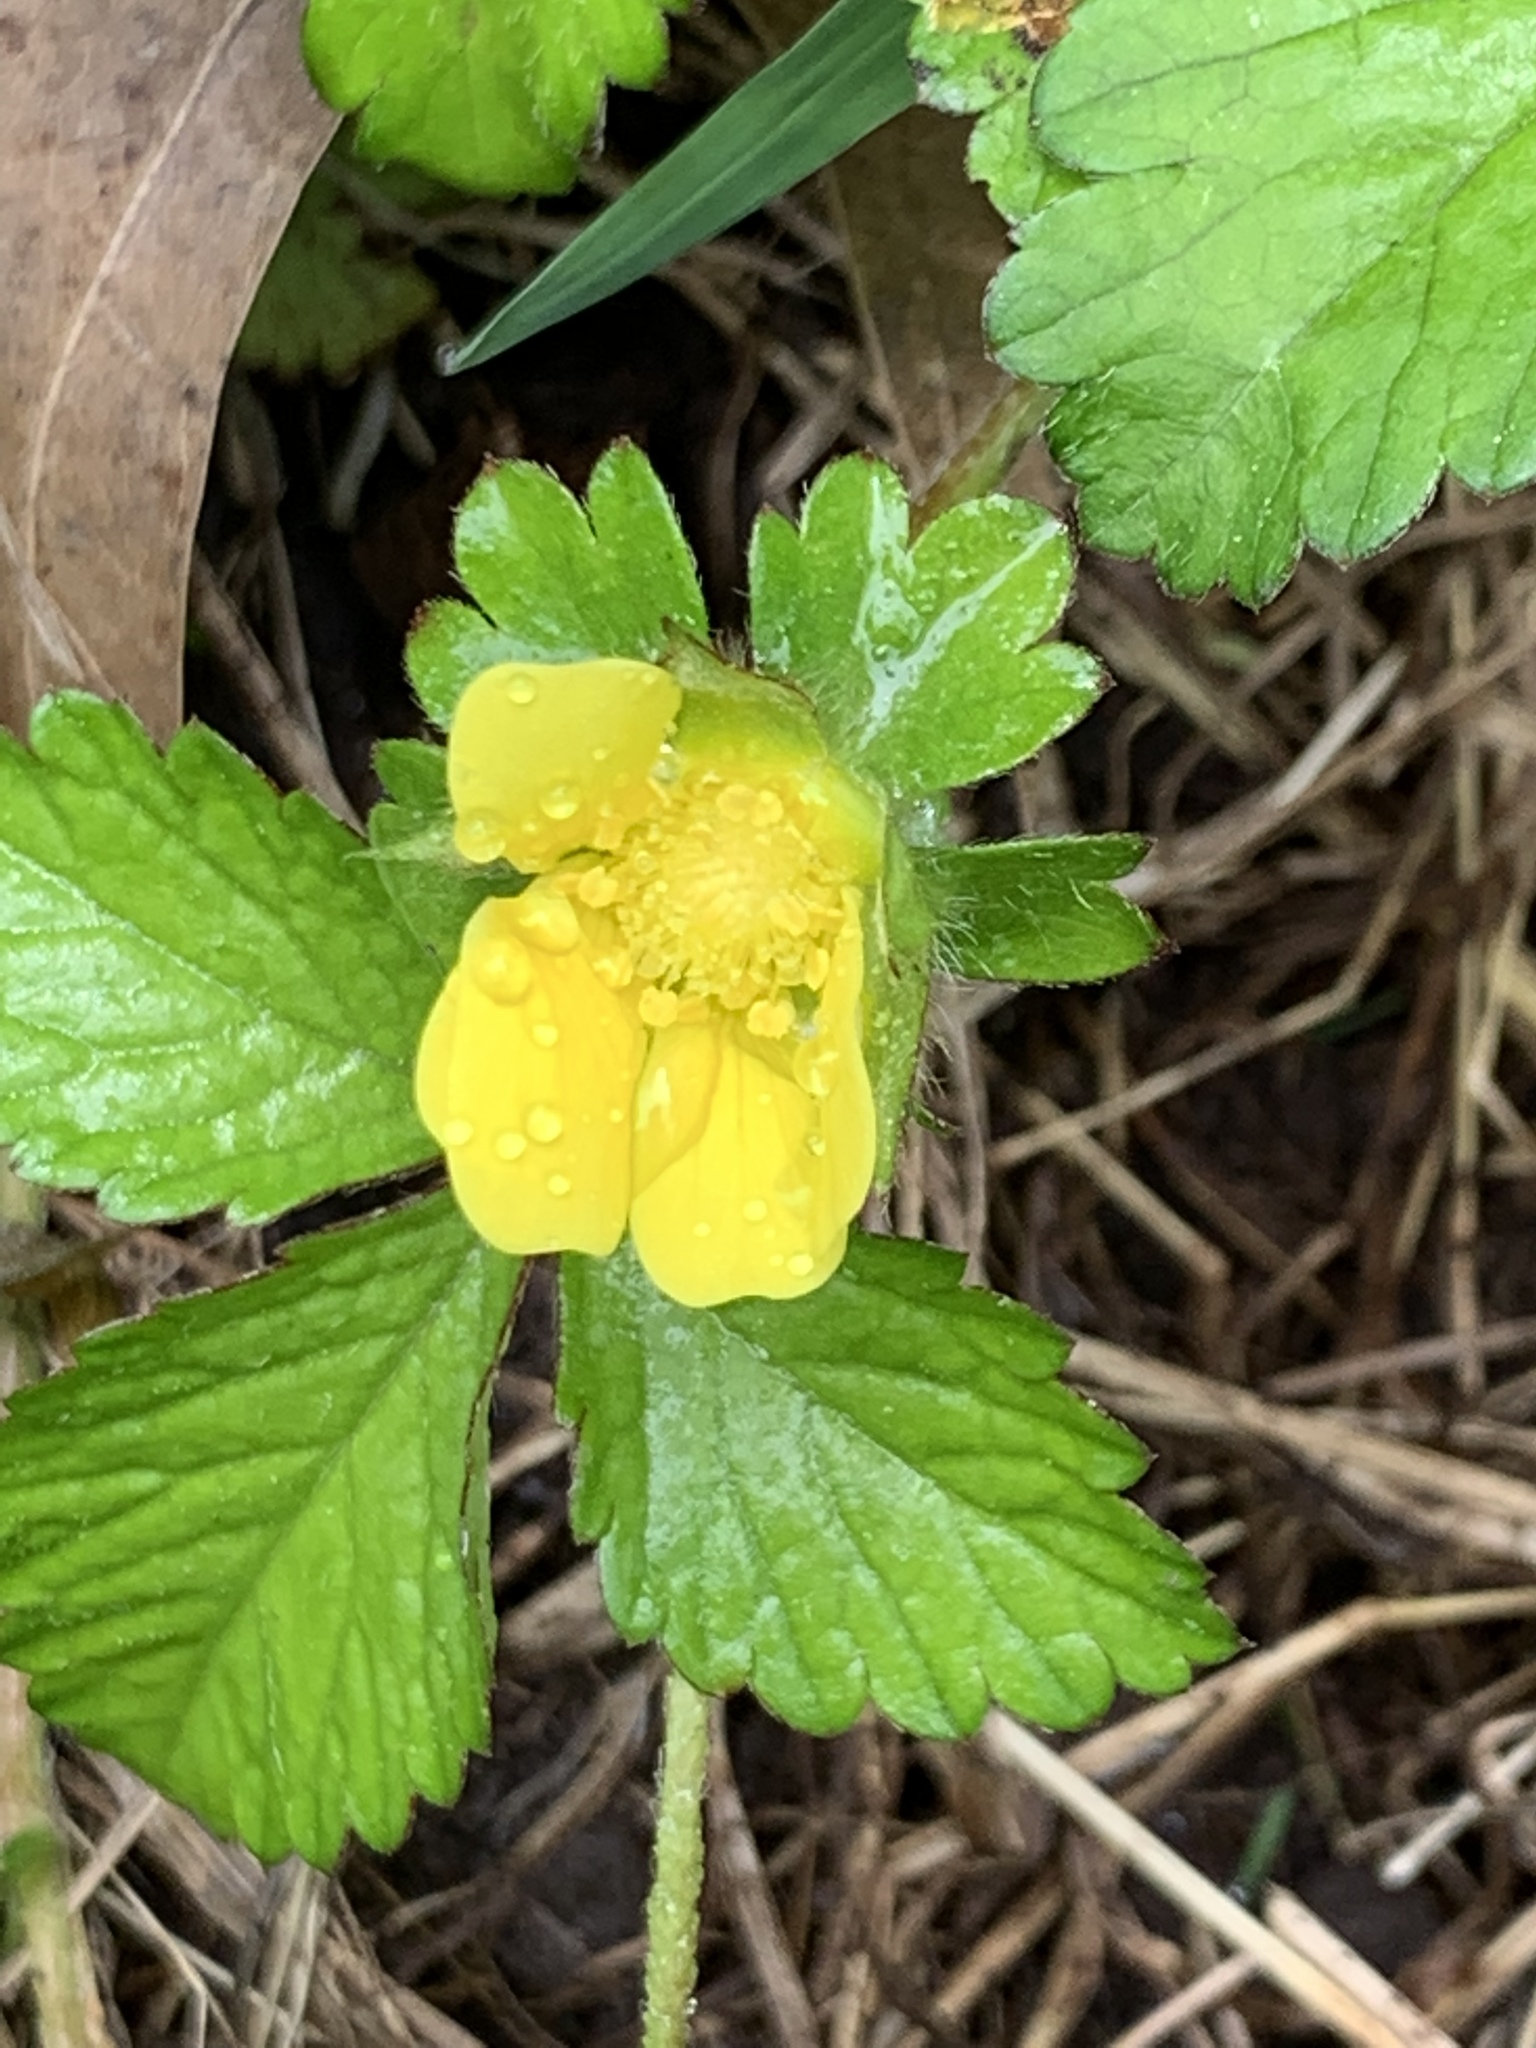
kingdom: Plantae
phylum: Tracheophyta
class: Magnoliopsida
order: Rosales
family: Rosaceae
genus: Potentilla
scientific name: Potentilla indica
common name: Yellow-flowered strawberry
